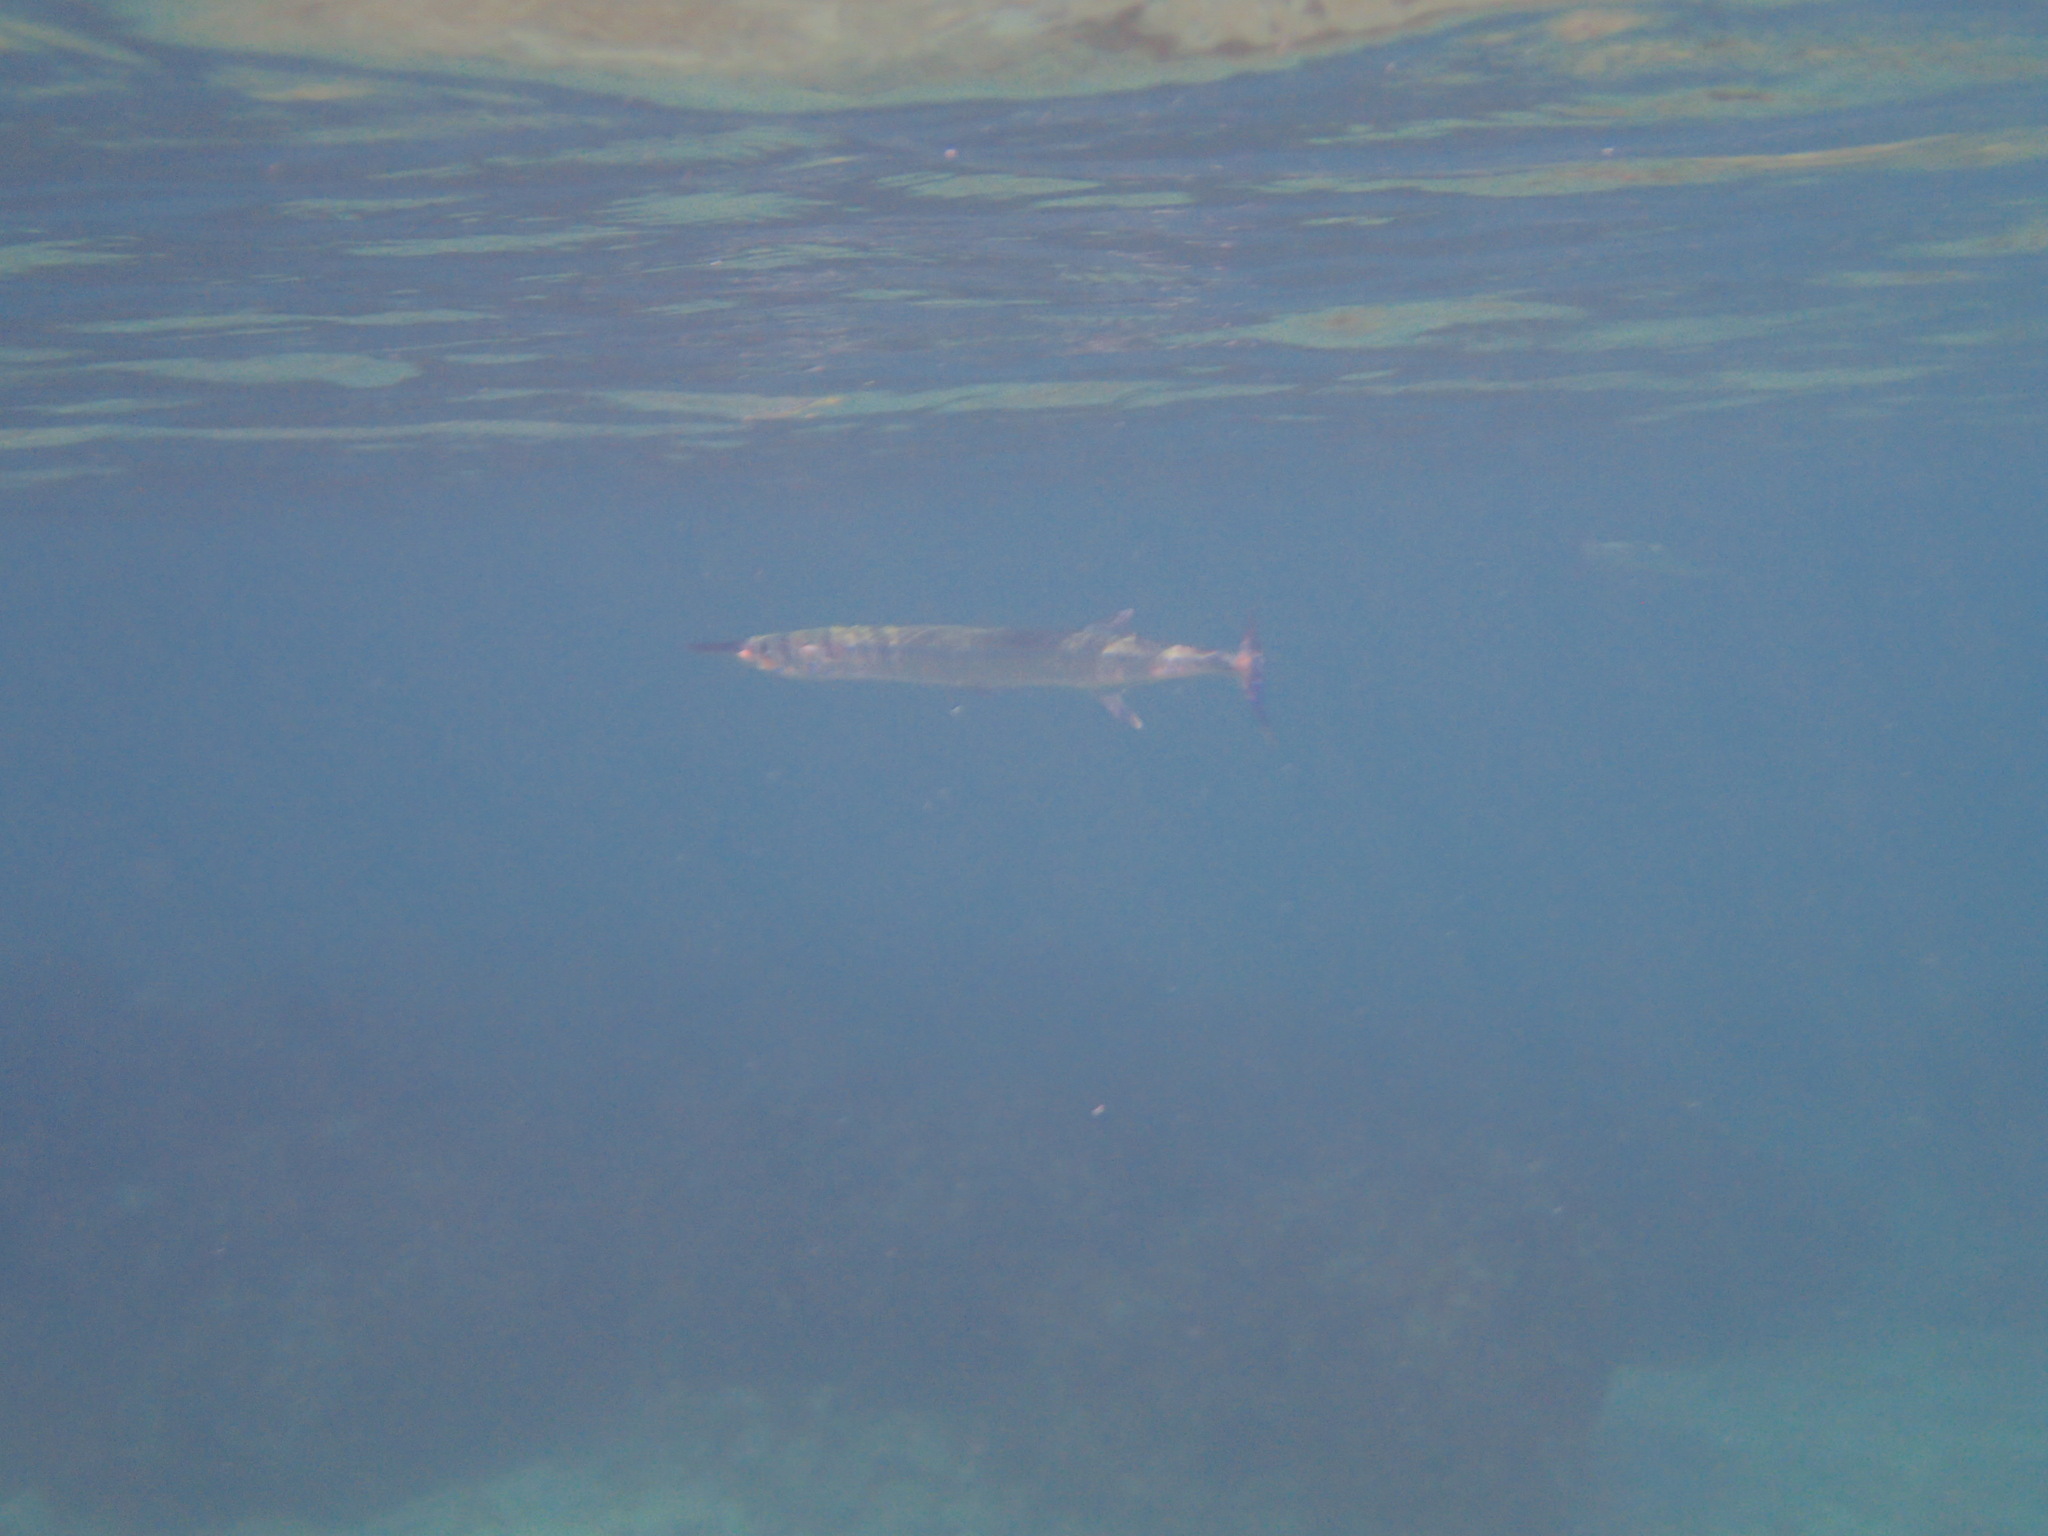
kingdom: Animalia
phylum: Chordata
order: Beloniformes
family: Belonidae
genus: Tylosurus
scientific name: Tylosurus crocodilus
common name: Houndfish
